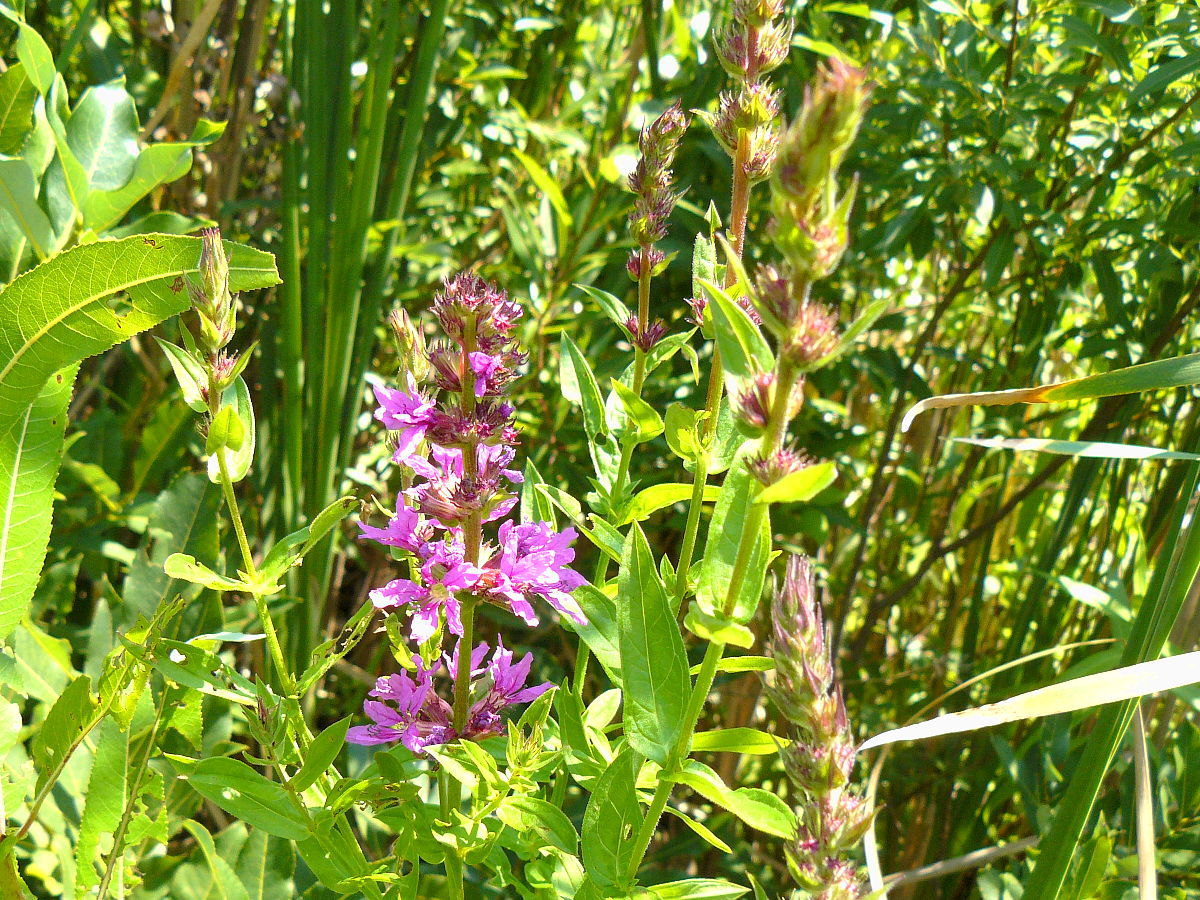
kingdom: Plantae
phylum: Tracheophyta
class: Magnoliopsida
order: Myrtales
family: Lythraceae
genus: Lythrum
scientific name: Lythrum salicaria
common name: Purple loosestrife
